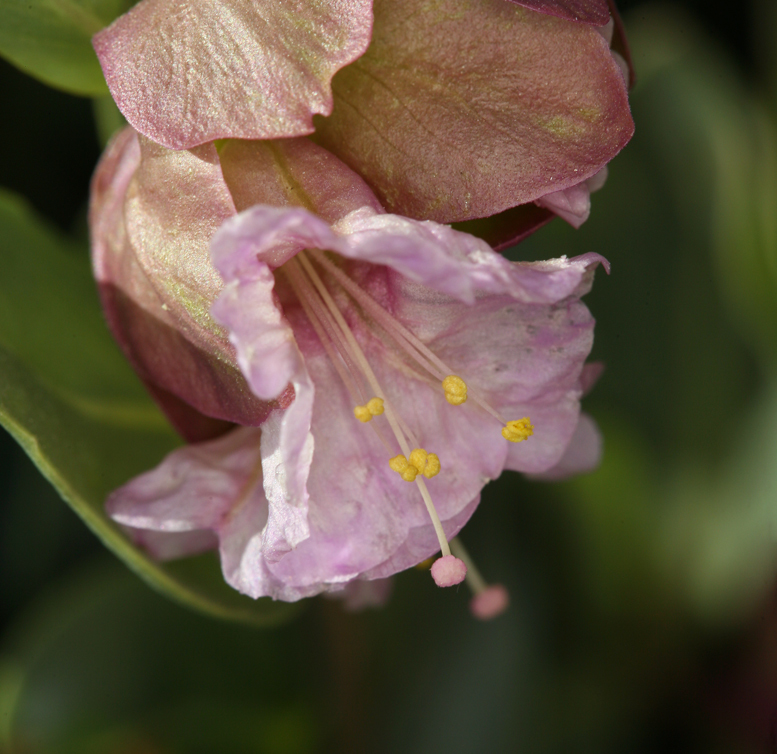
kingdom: Plantae
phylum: Tracheophyta
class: Magnoliopsida
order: Caryophyllales
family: Nyctaginaceae
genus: Mirabilis
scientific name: Mirabilis alipes
